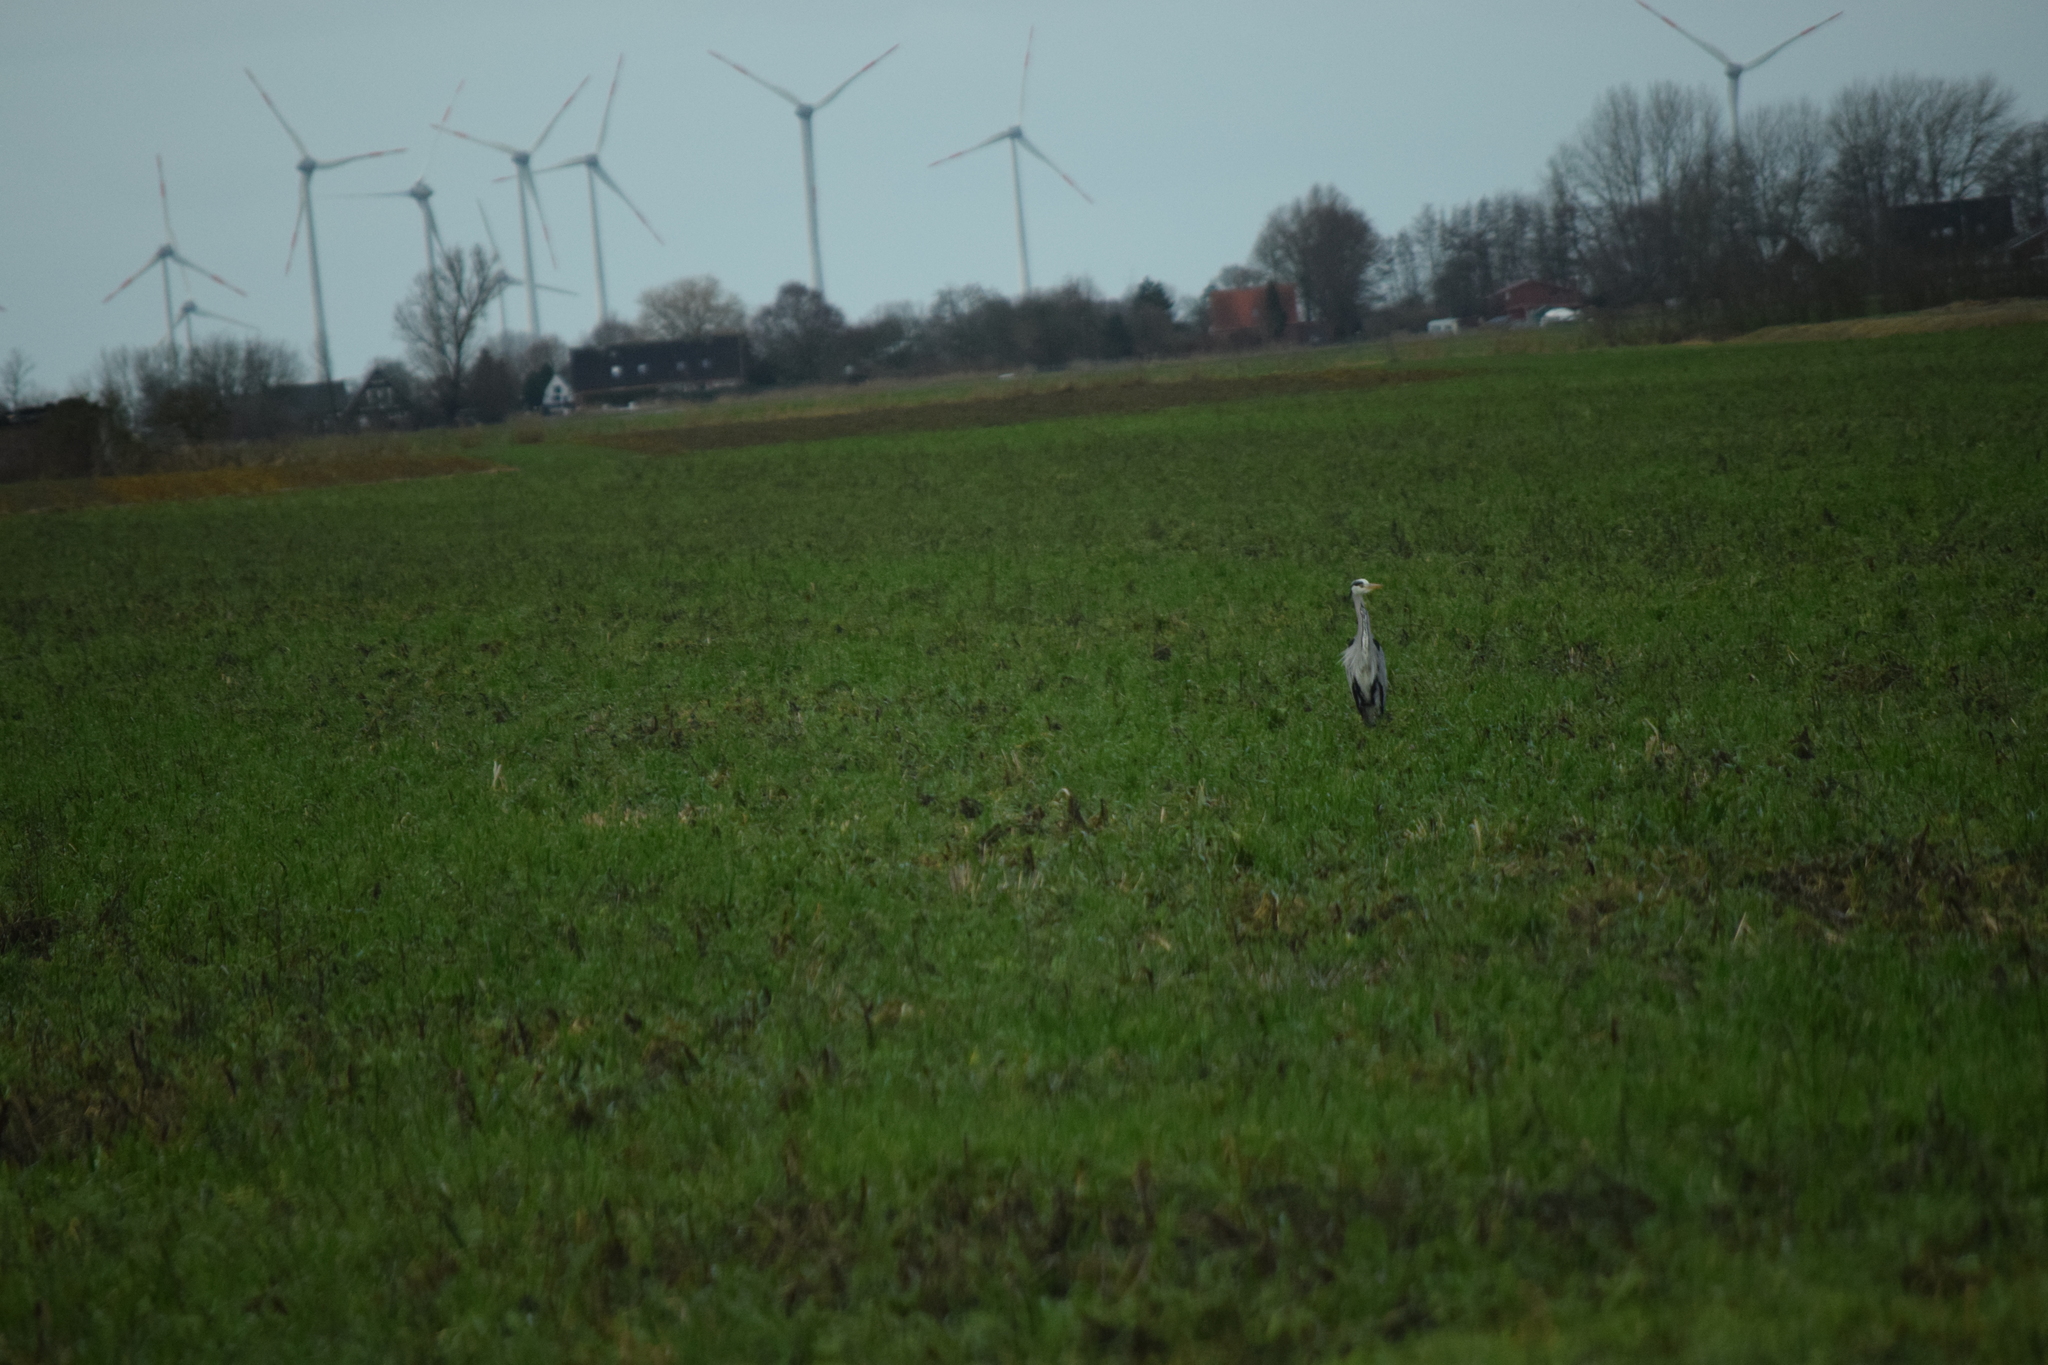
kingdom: Animalia
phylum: Chordata
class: Aves
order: Pelecaniformes
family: Ardeidae
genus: Ardea
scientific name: Ardea cinerea
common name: Grey heron
